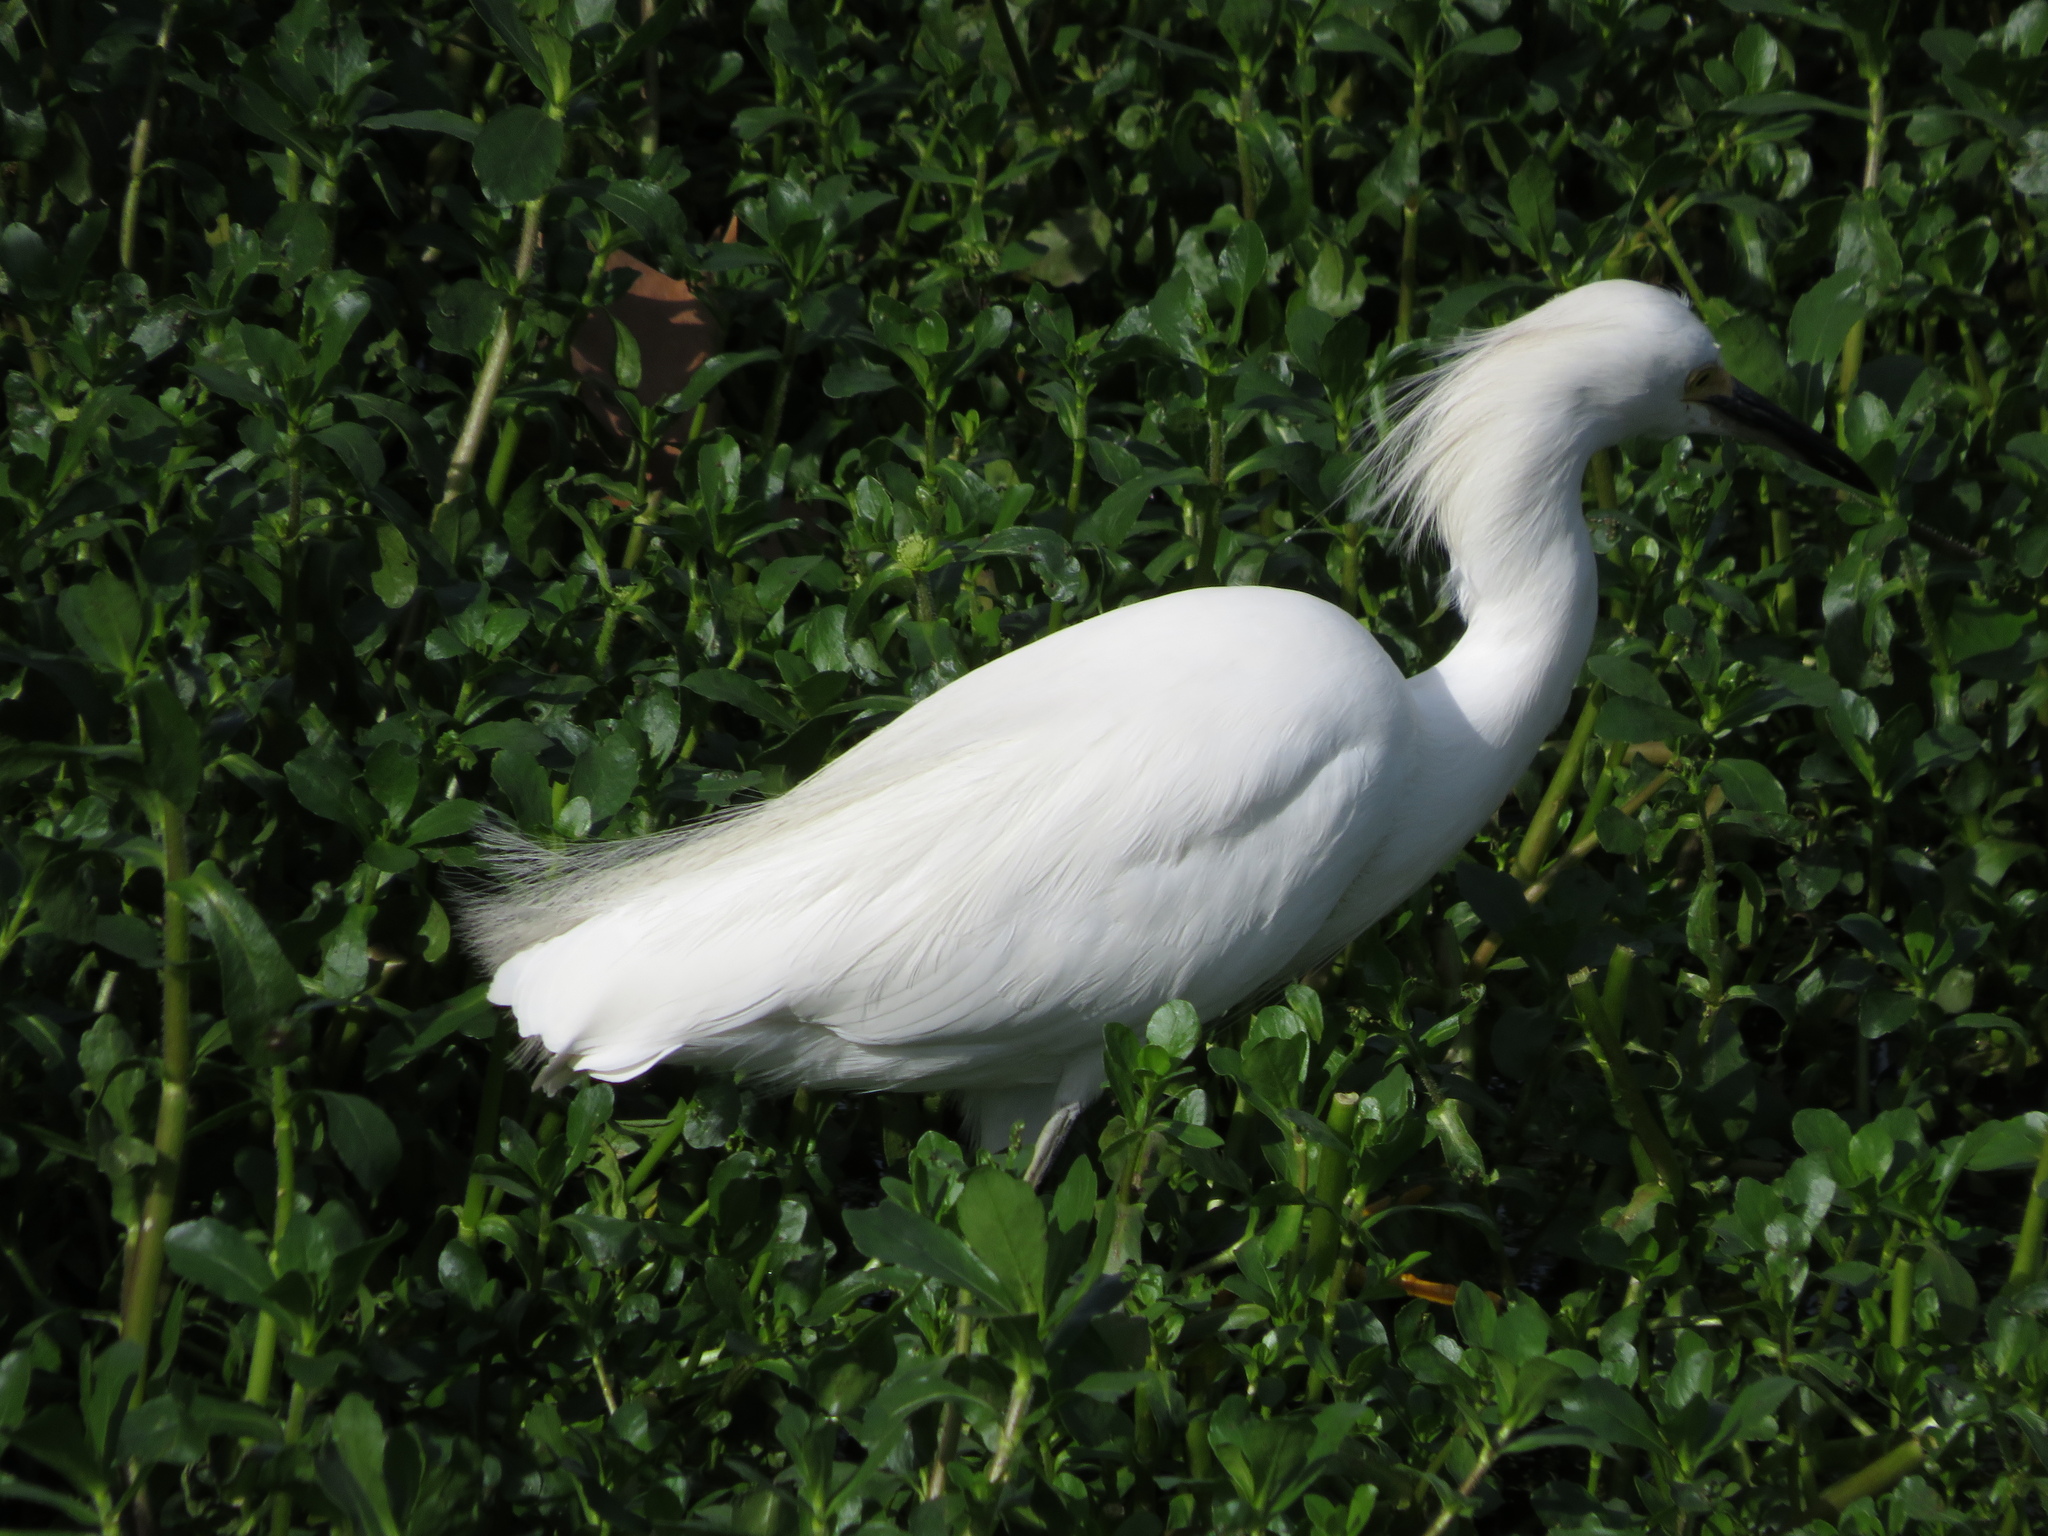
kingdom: Animalia
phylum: Chordata
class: Aves
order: Pelecaniformes
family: Ardeidae
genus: Egretta
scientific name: Egretta thula
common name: Snowy egret
